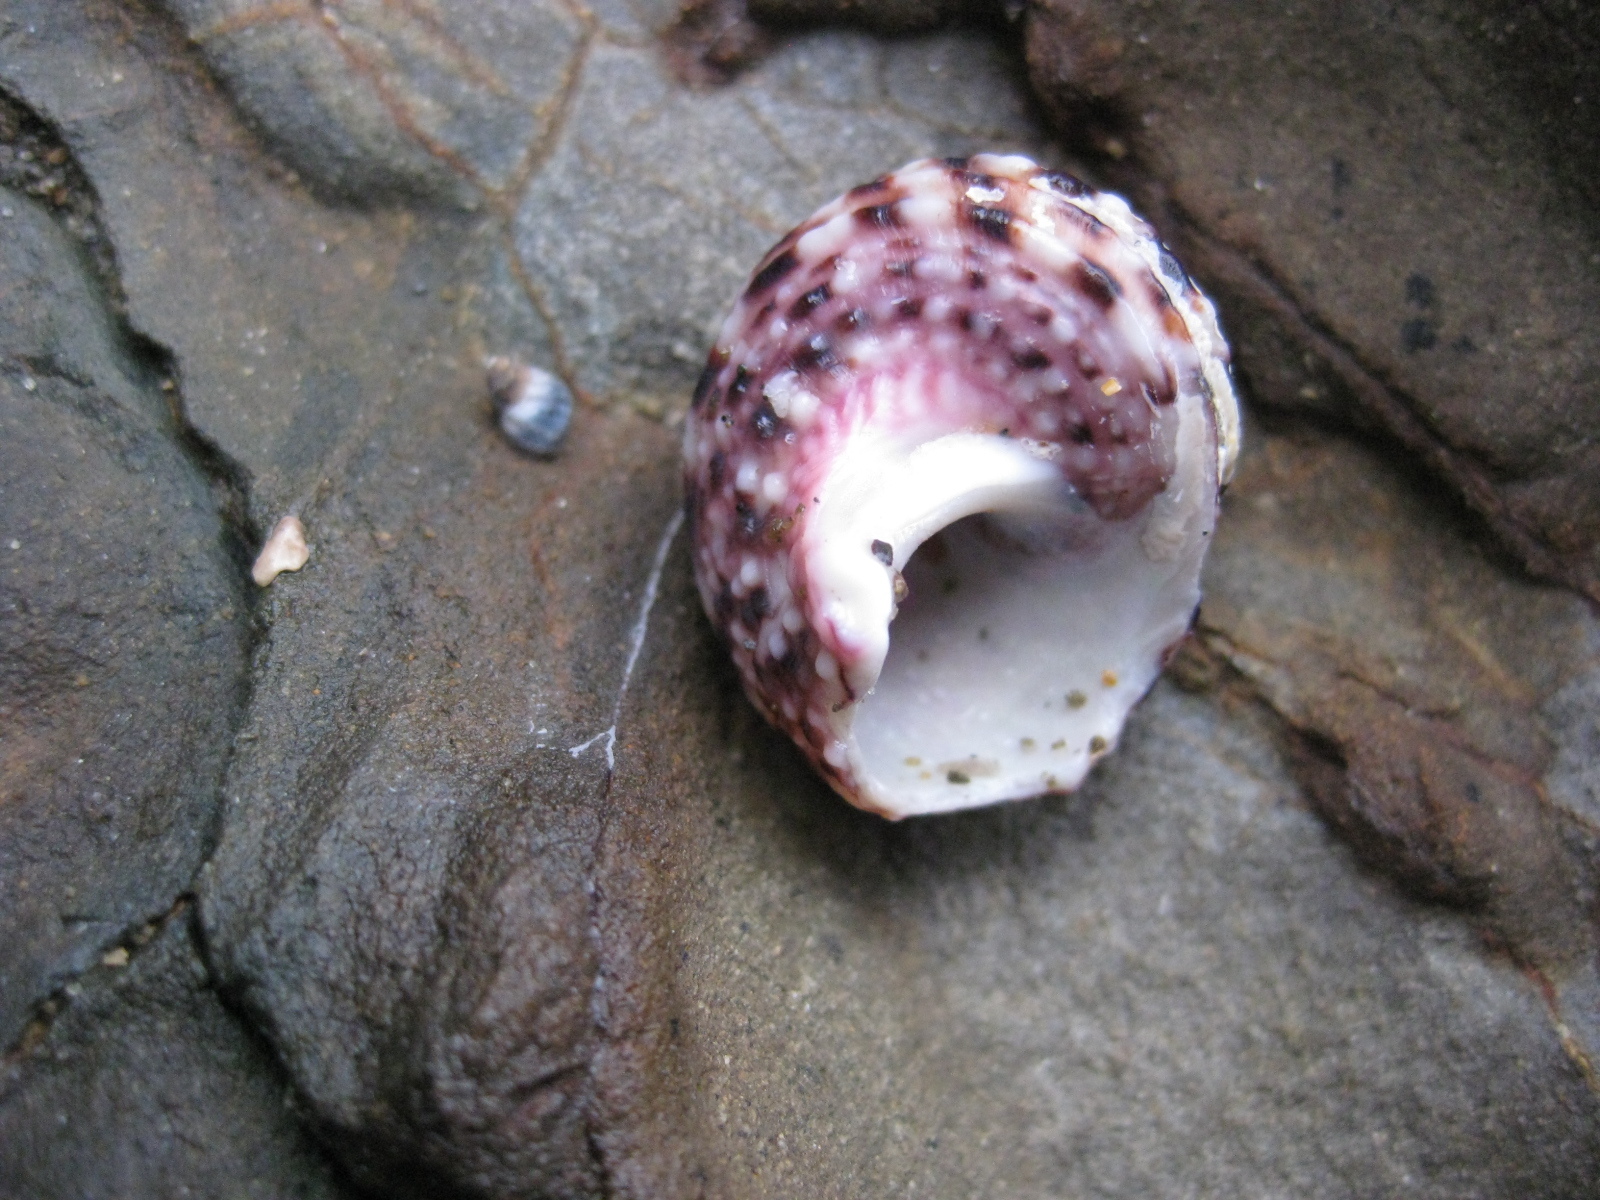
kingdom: Animalia
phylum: Mollusca
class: Gastropoda
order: Trochida
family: Turbinidae
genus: Modelia
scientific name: Modelia granosa
